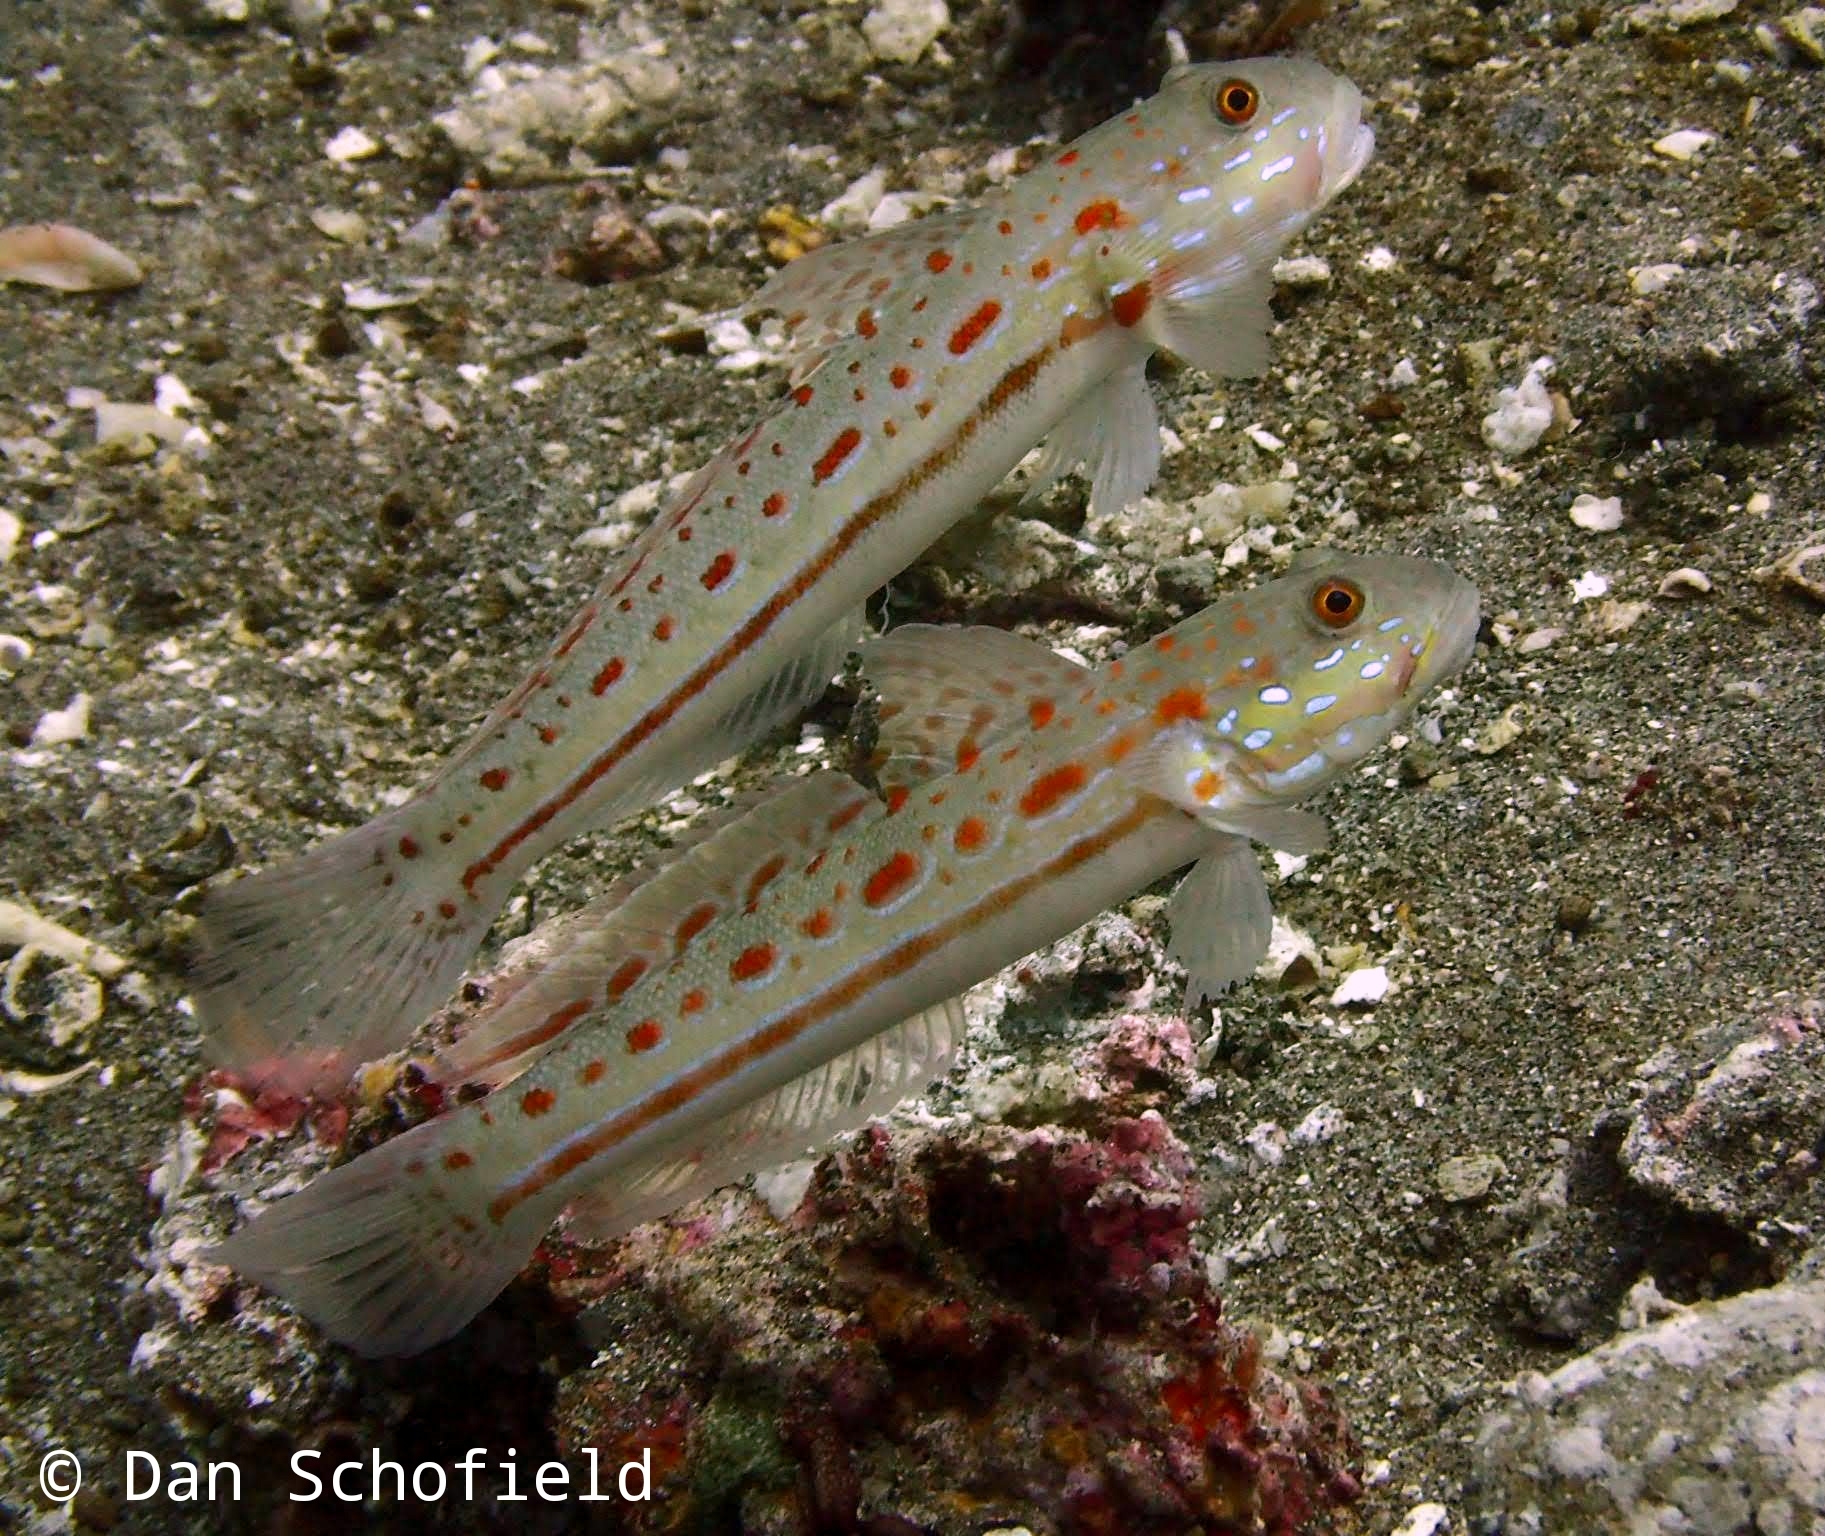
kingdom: Animalia
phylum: Chordata
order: Perciformes
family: Gobiidae
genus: Valenciennea
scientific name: Valenciennea puellaris
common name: Orange-dashed goby
